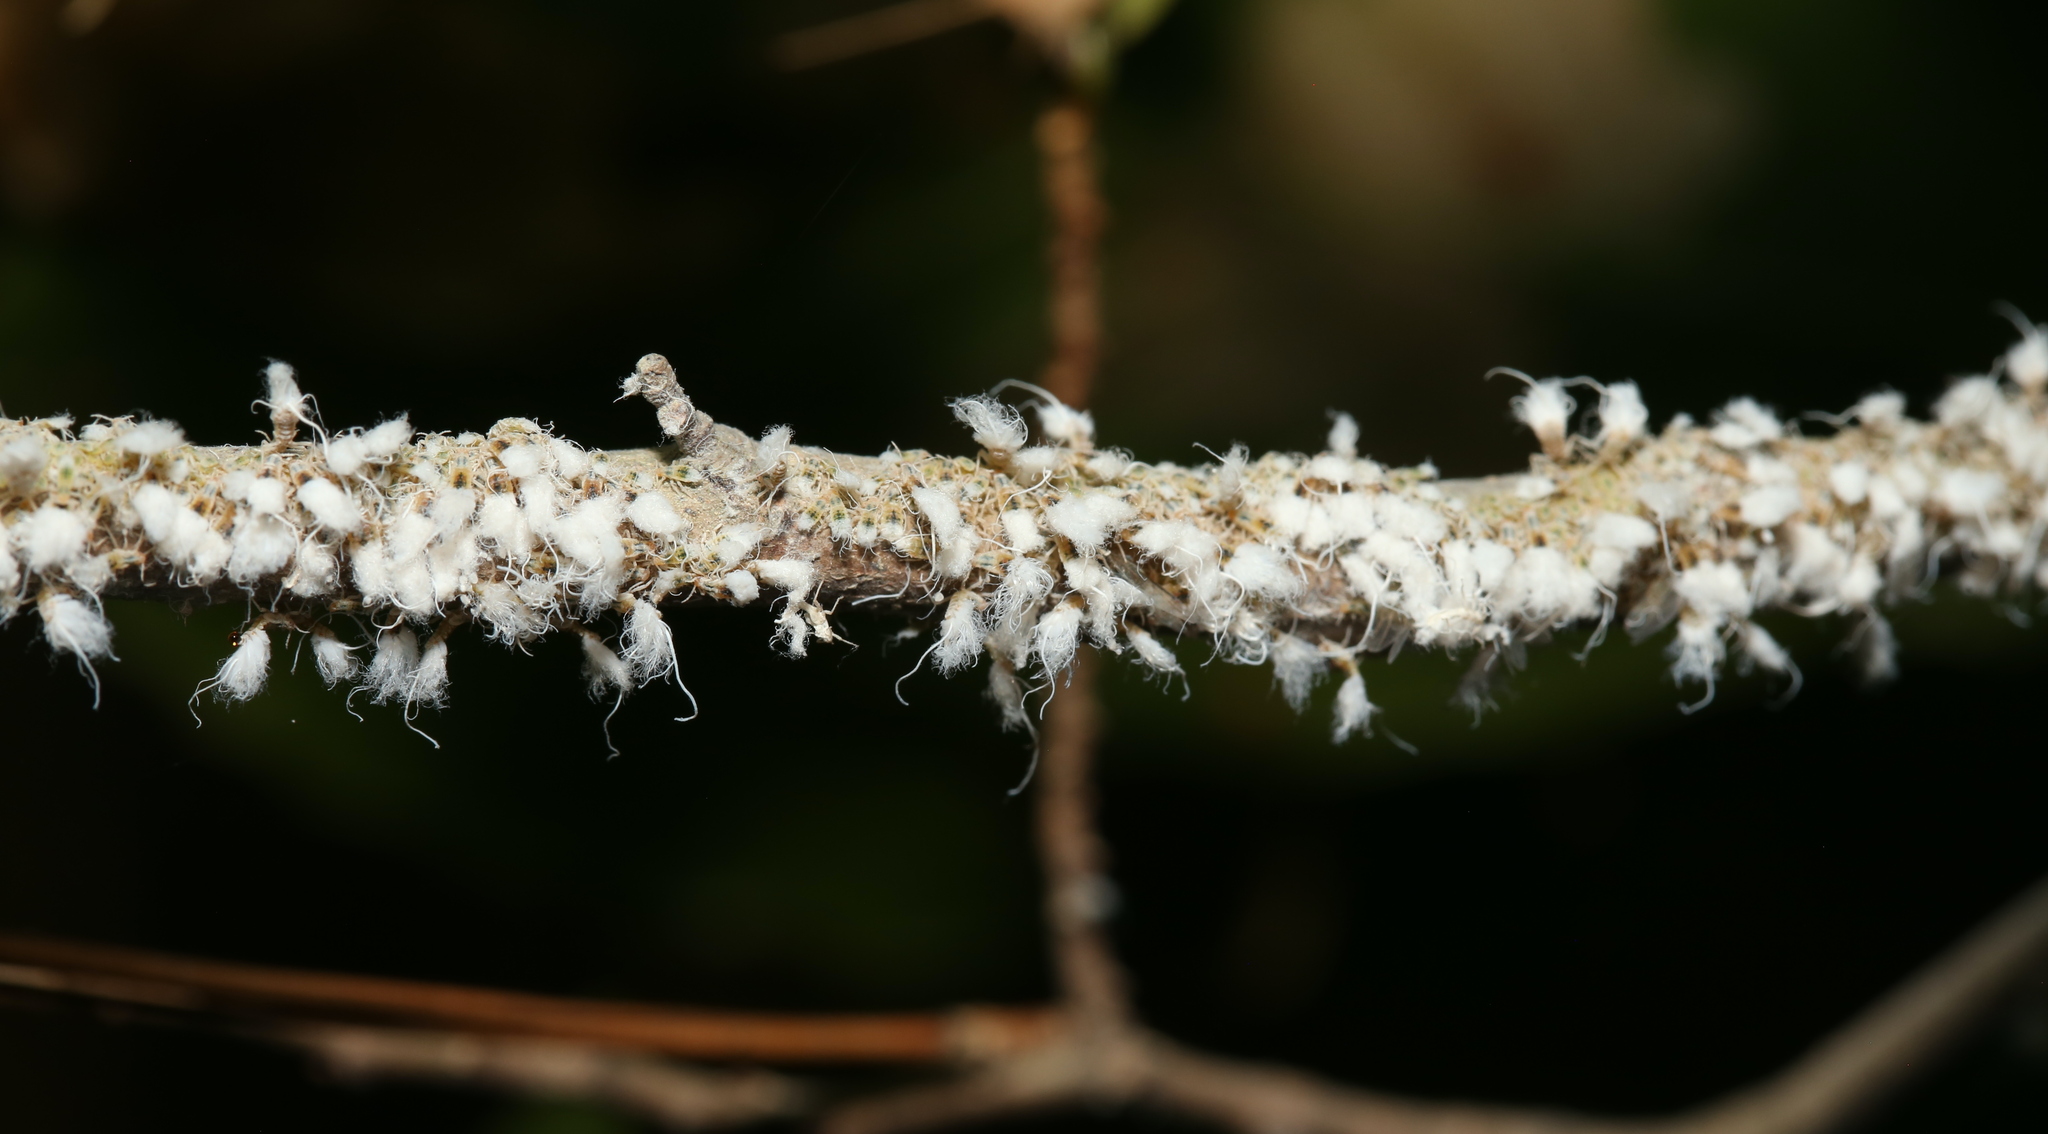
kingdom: Animalia
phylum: Arthropoda
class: Insecta
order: Hemiptera
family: Aphididae
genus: Grylloprociphilus
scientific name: Grylloprociphilus imbricator
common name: Beech blight aphid
